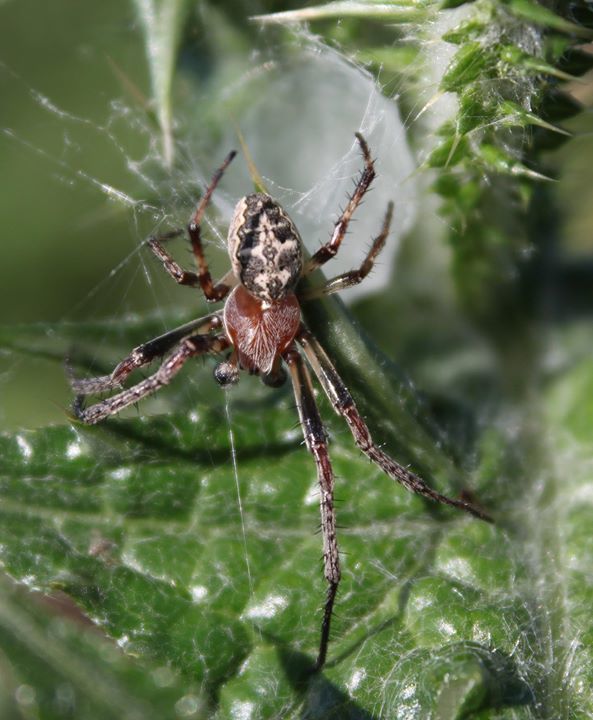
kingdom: Animalia
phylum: Arthropoda
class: Arachnida
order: Araneae
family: Araneidae
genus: Larinioides
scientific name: Larinioides cornutus
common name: Furrow orbweaver
